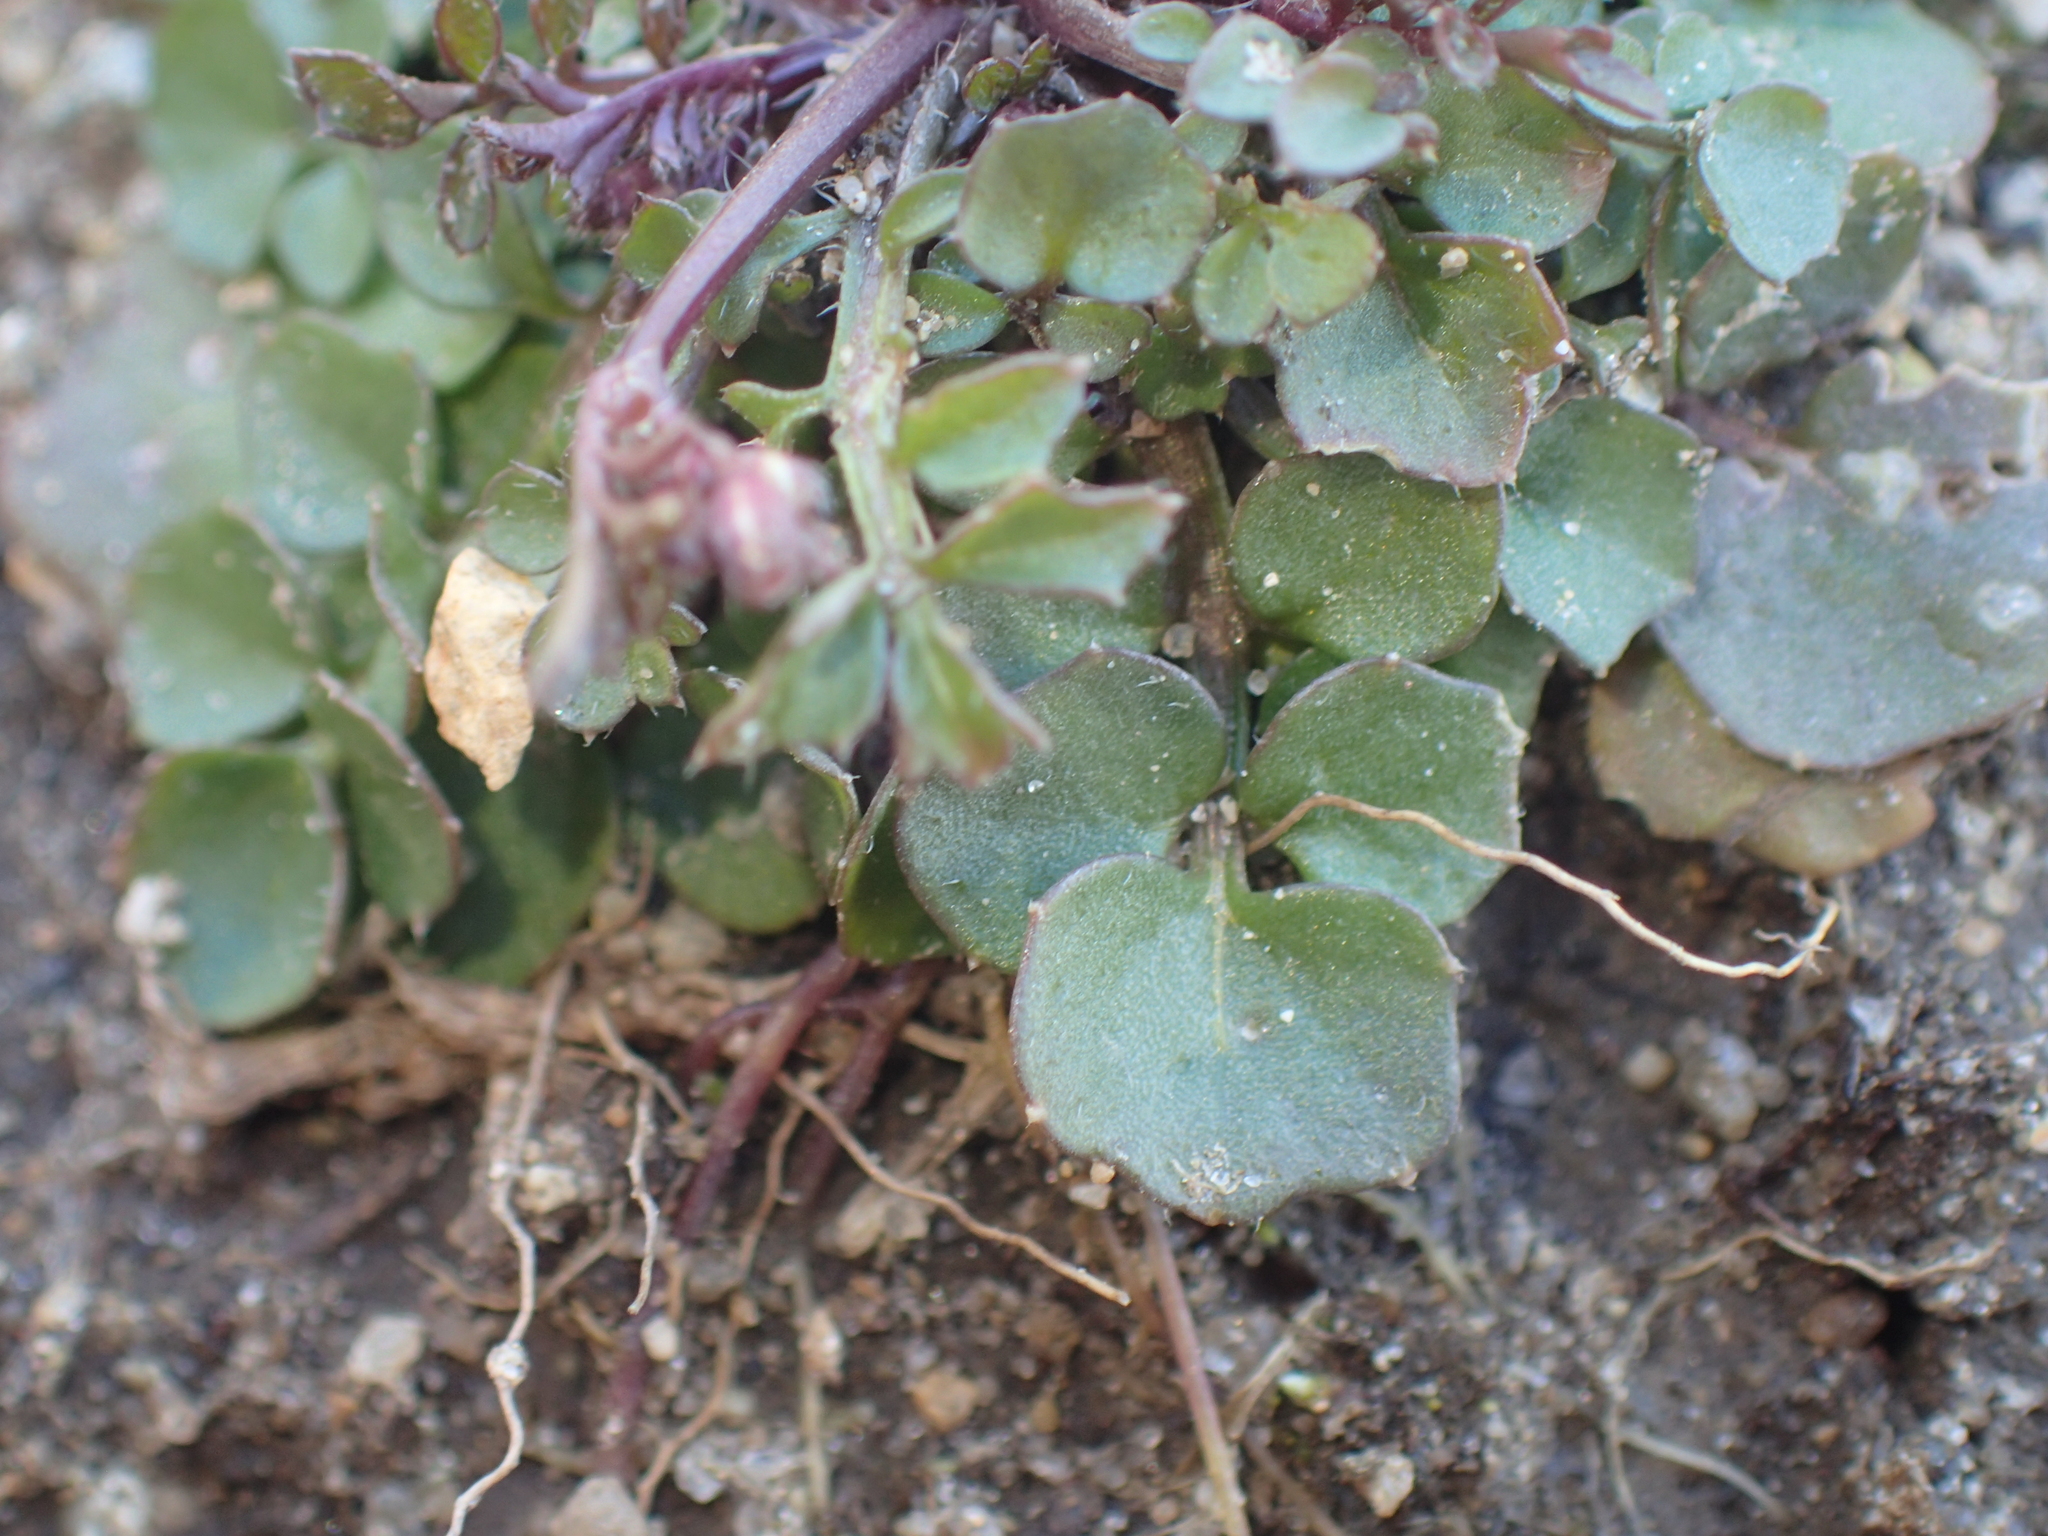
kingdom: Plantae
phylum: Tracheophyta
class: Magnoliopsida
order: Brassicales
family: Brassicaceae
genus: Cardamine
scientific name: Cardamine hirsuta
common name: Hairy bittercress
